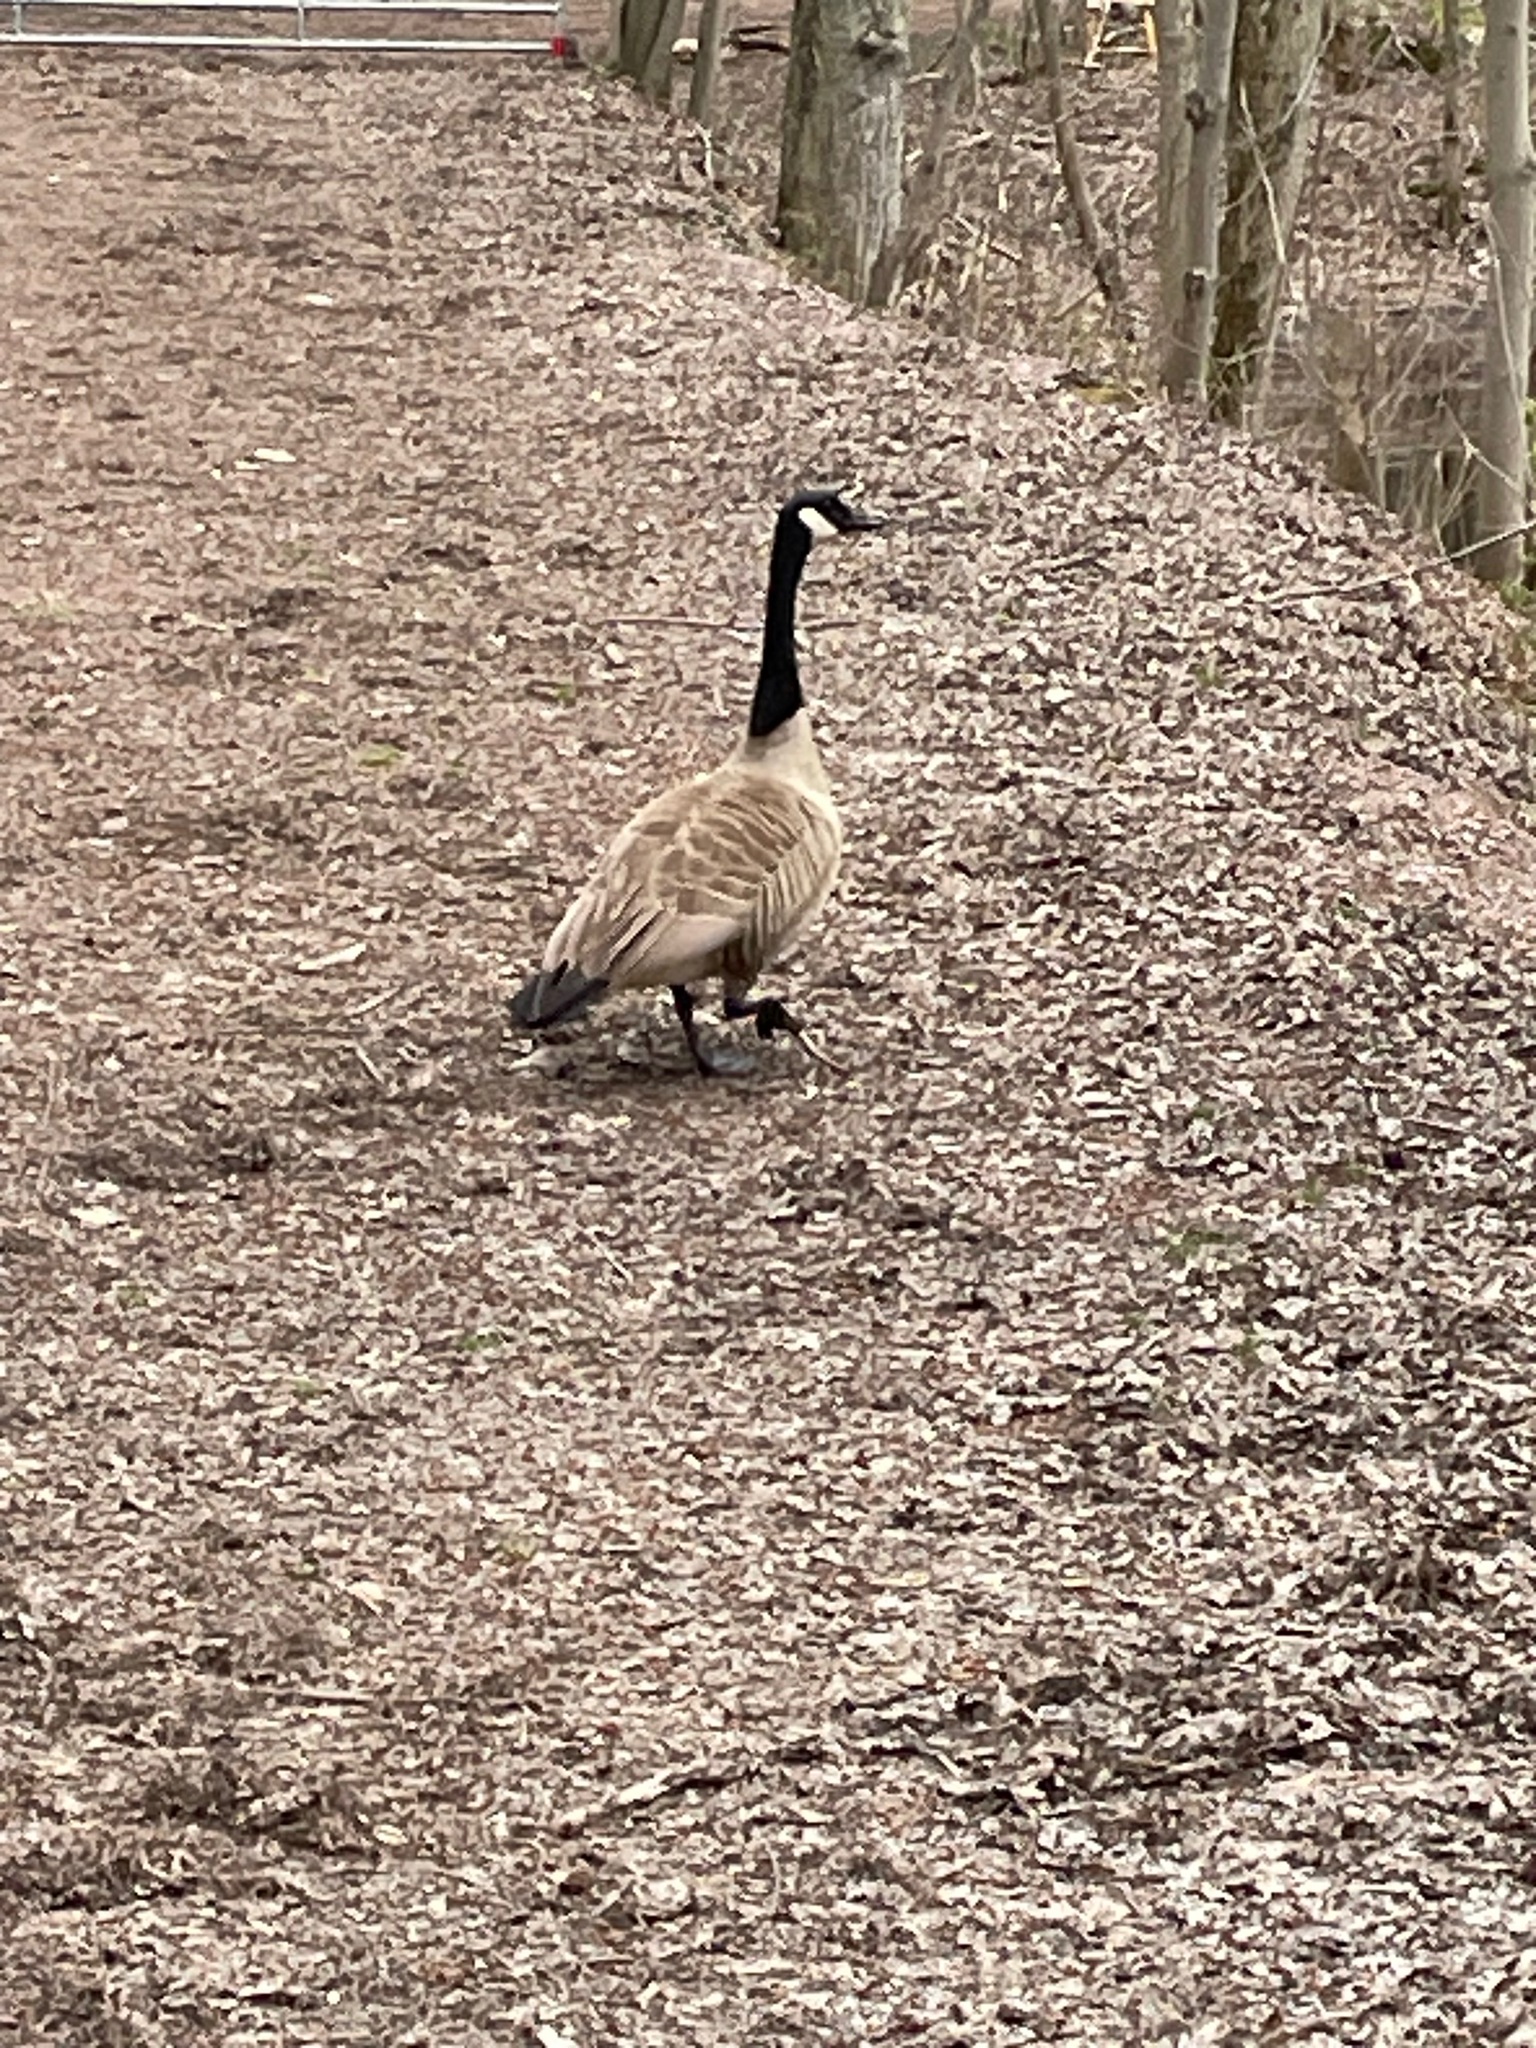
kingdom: Animalia
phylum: Chordata
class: Aves
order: Anseriformes
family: Anatidae
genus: Branta
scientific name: Branta canadensis
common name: Canada goose
